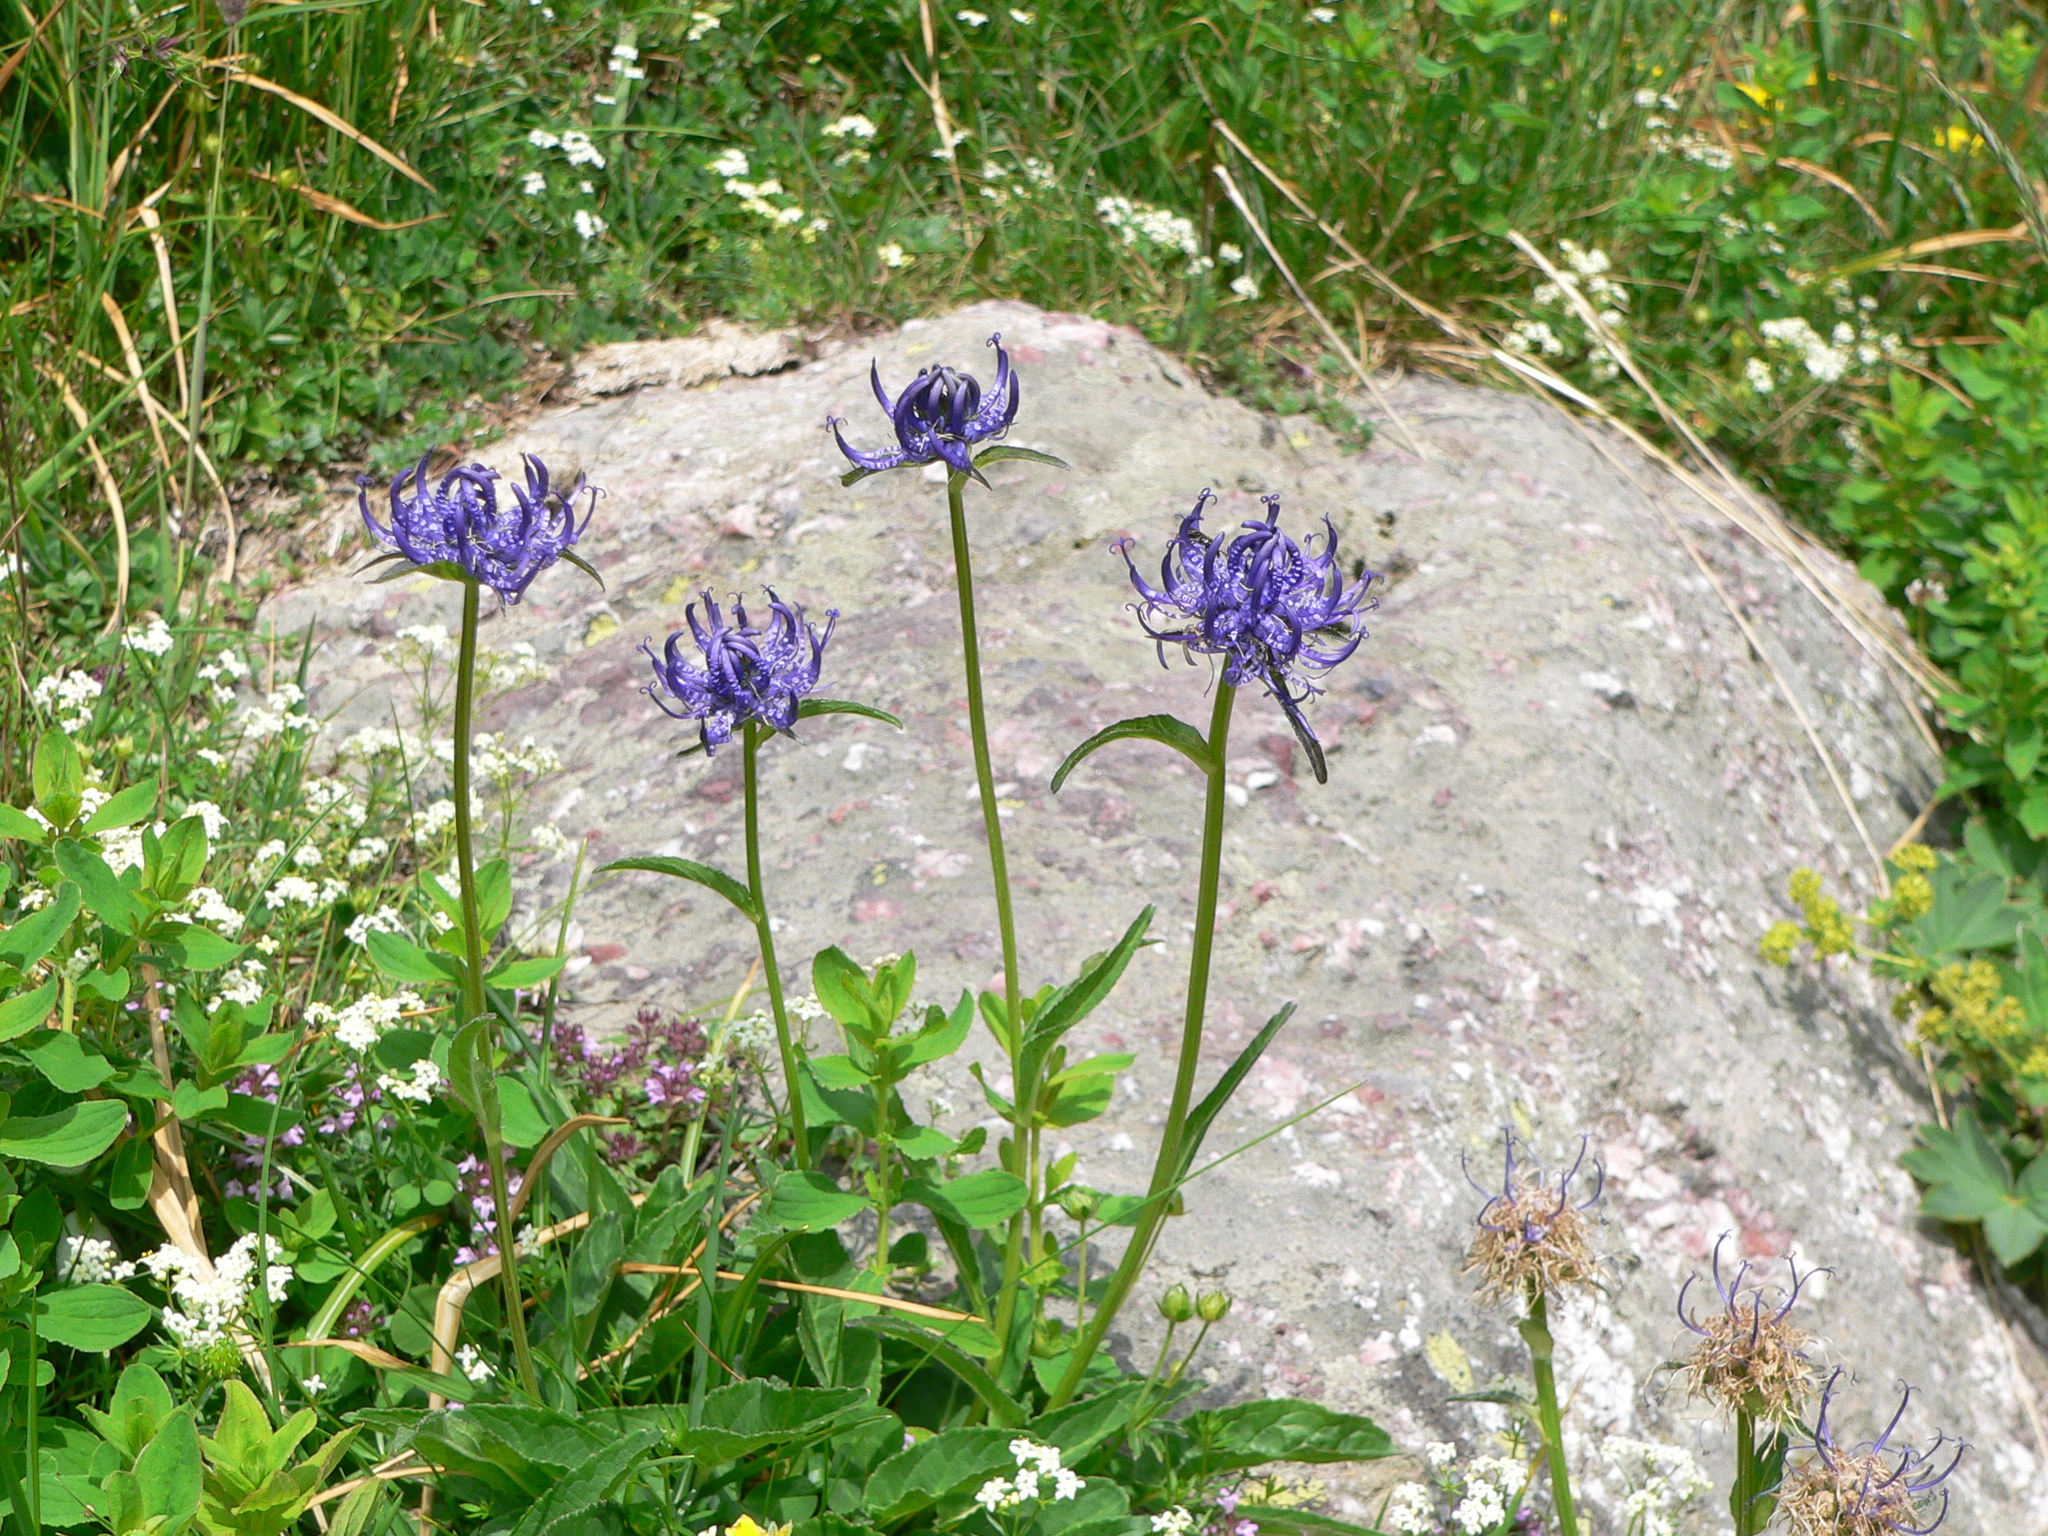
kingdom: Plantae
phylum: Tracheophyta
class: Magnoliopsida
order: Asterales
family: Campanulaceae
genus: Phyteuma
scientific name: Phyteuma orbiculare
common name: Round-headed rampion
